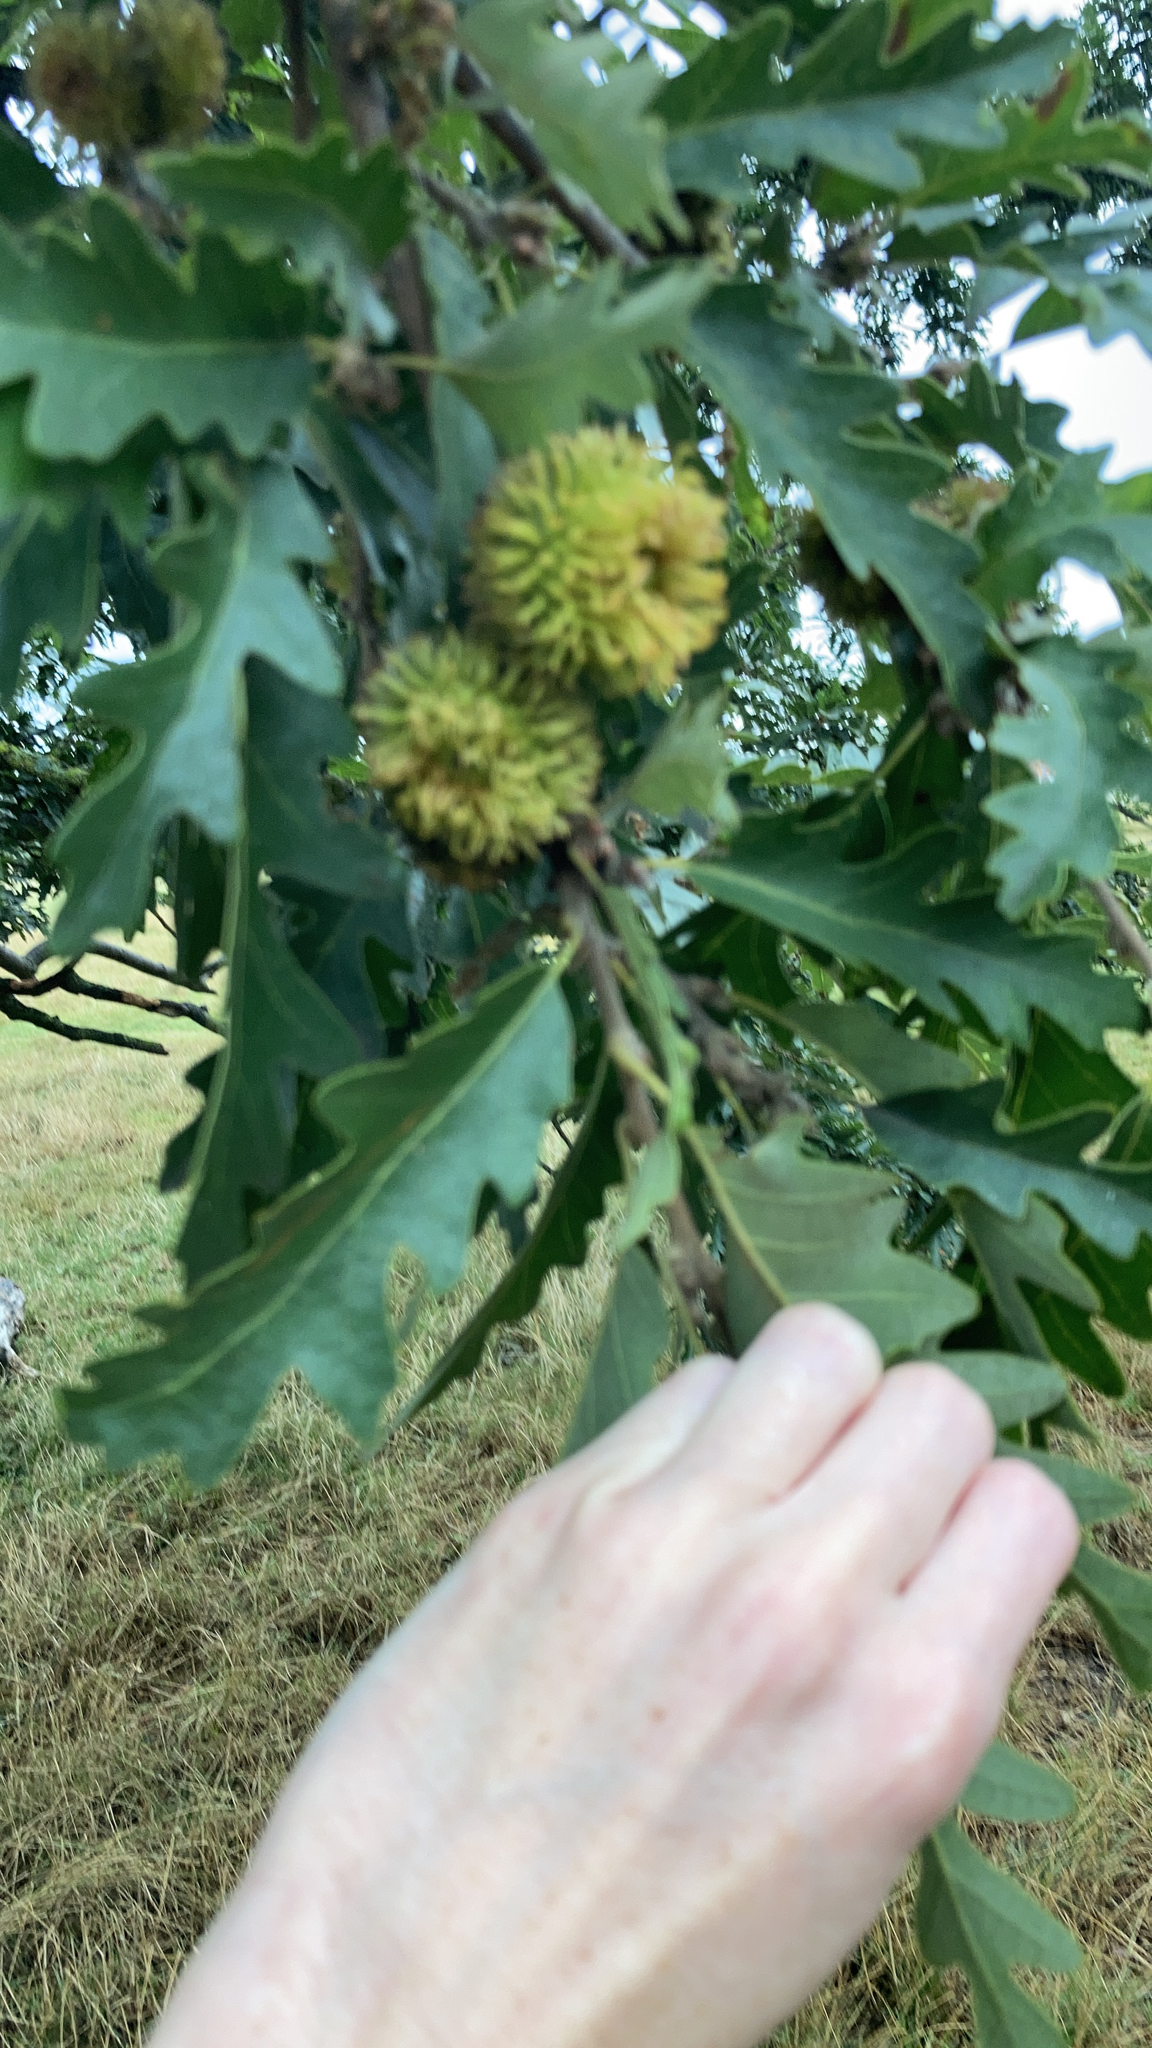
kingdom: Plantae
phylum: Tracheophyta
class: Magnoliopsida
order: Fagales
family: Fagaceae
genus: Quercus
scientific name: Quercus cerris
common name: Turkey oak
